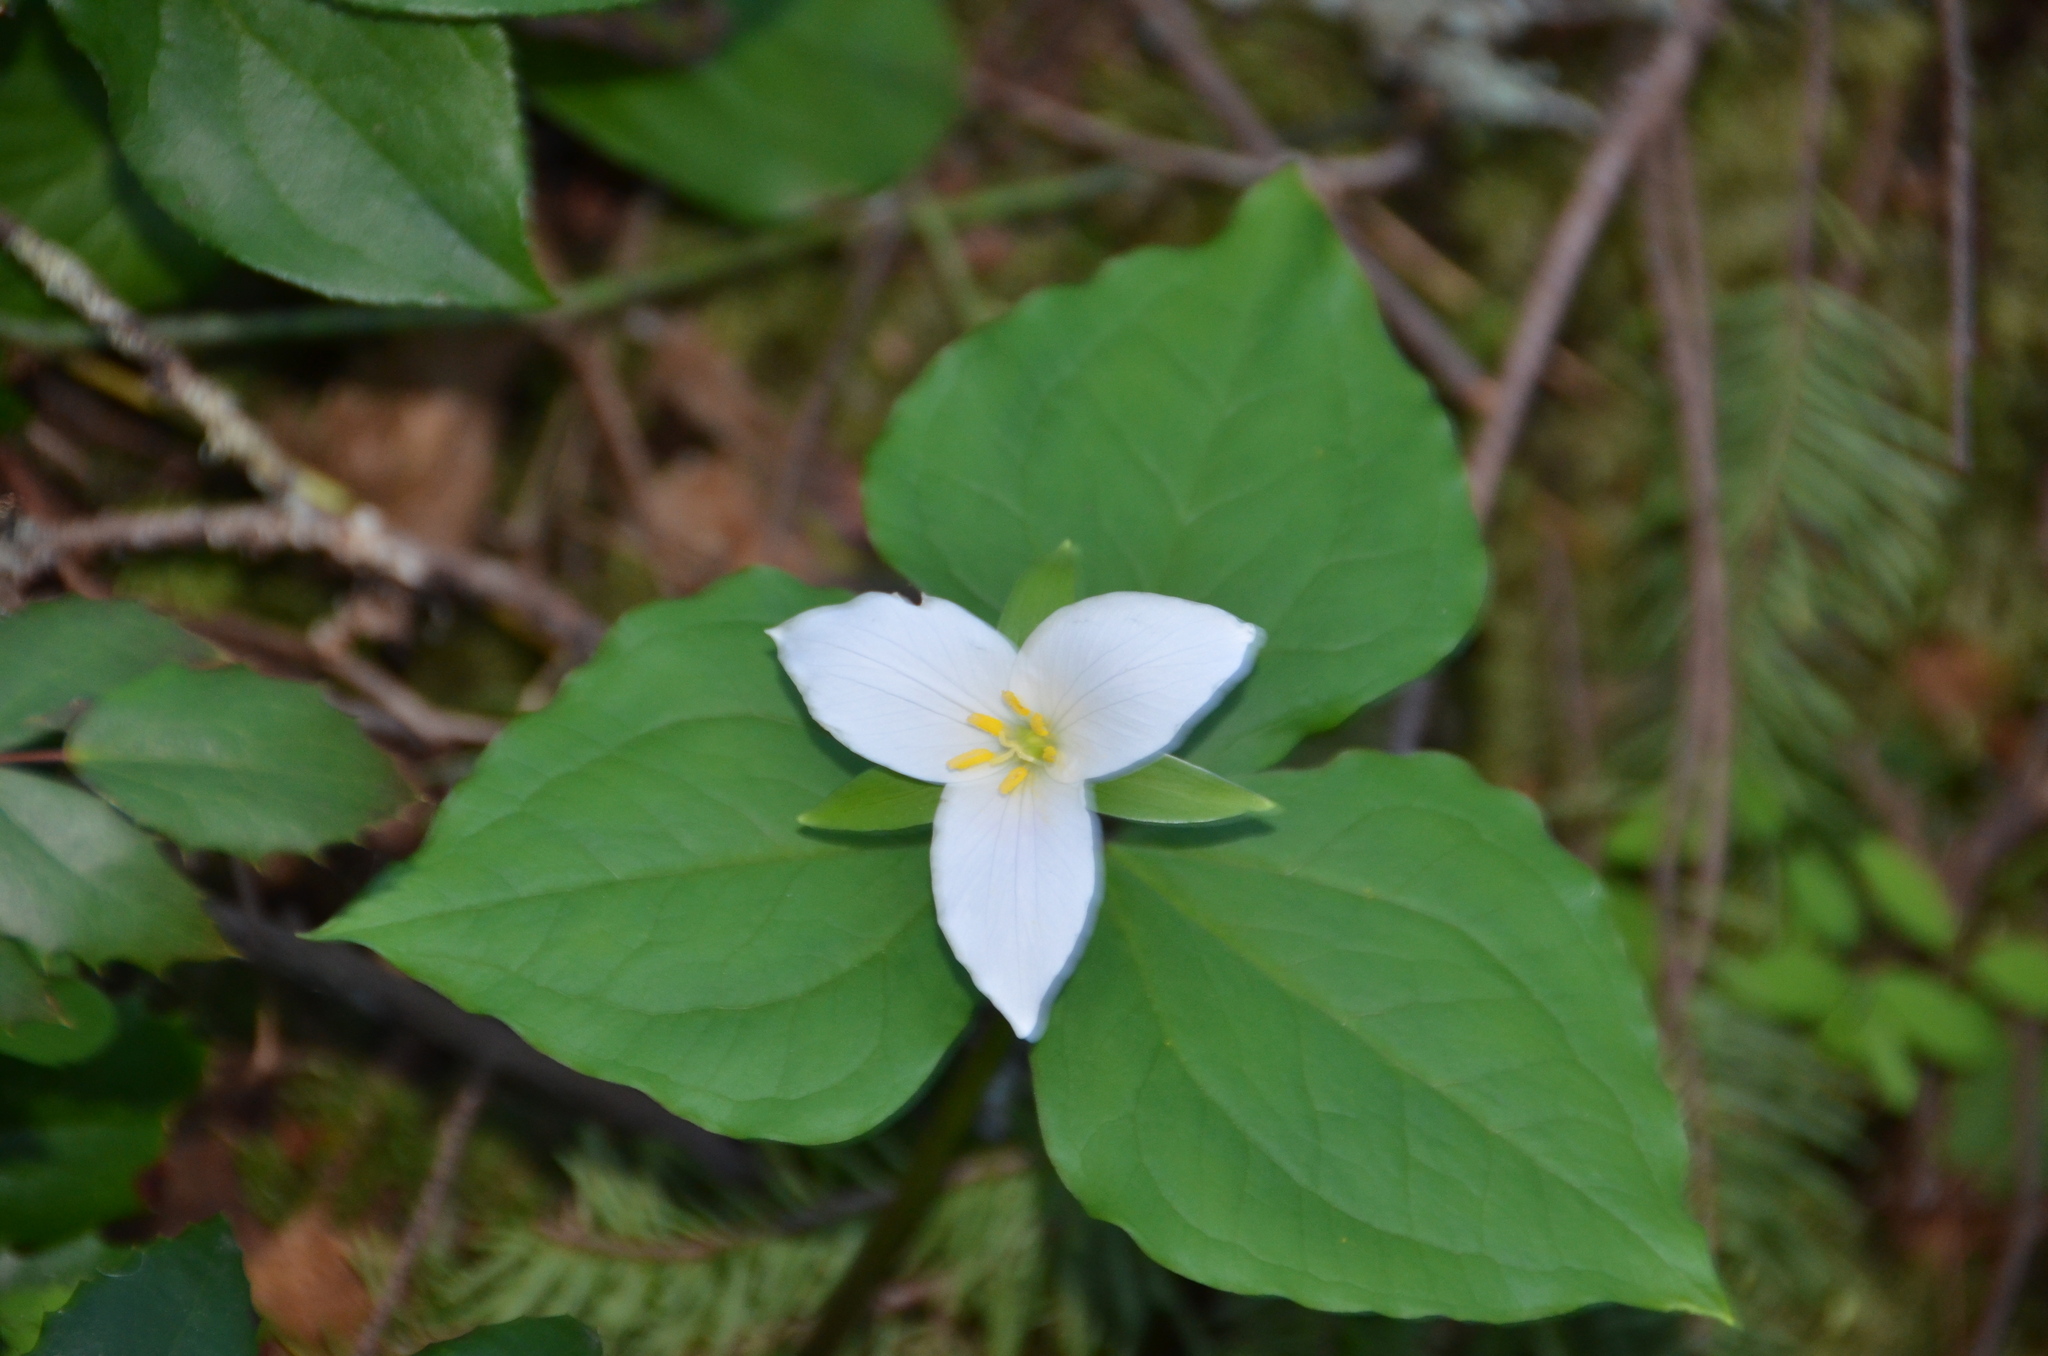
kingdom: Plantae
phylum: Tracheophyta
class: Liliopsida
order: Liliales
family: Melanthiaceae
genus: Trillium
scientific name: Trillium ovatum
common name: Pacific trillium
